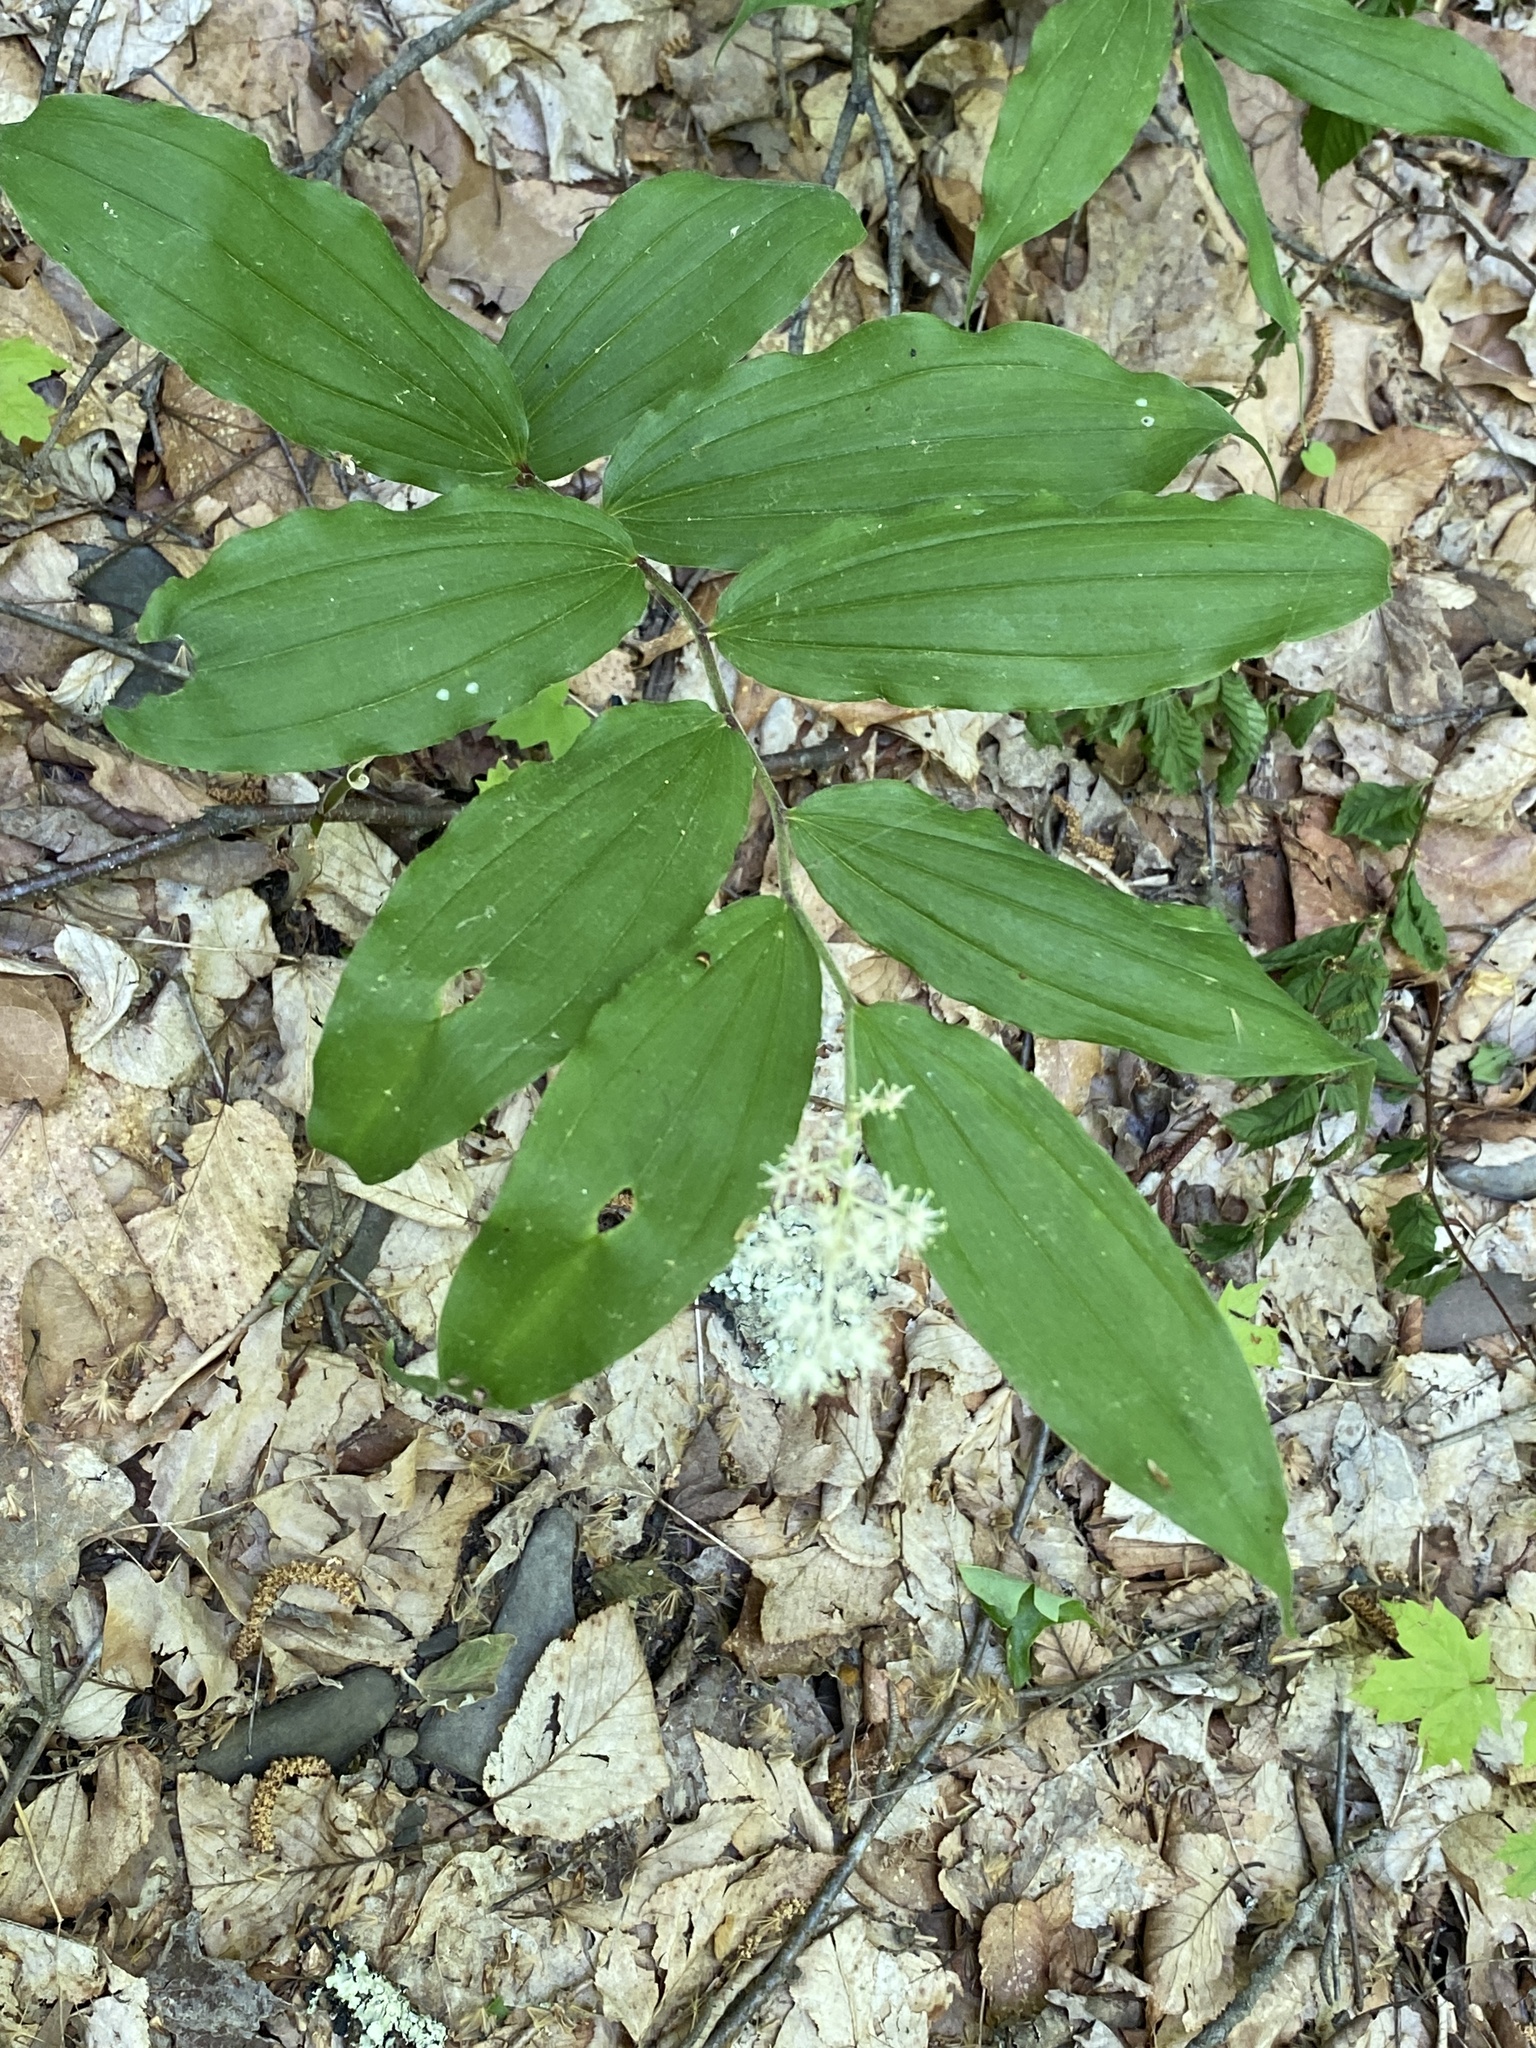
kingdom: Plantae
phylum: Tracheophyta
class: Liliopsida
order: Asparagales
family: Asparagaceae
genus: Maianthemum
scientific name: Maianthemum racemosum
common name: False spikenard
